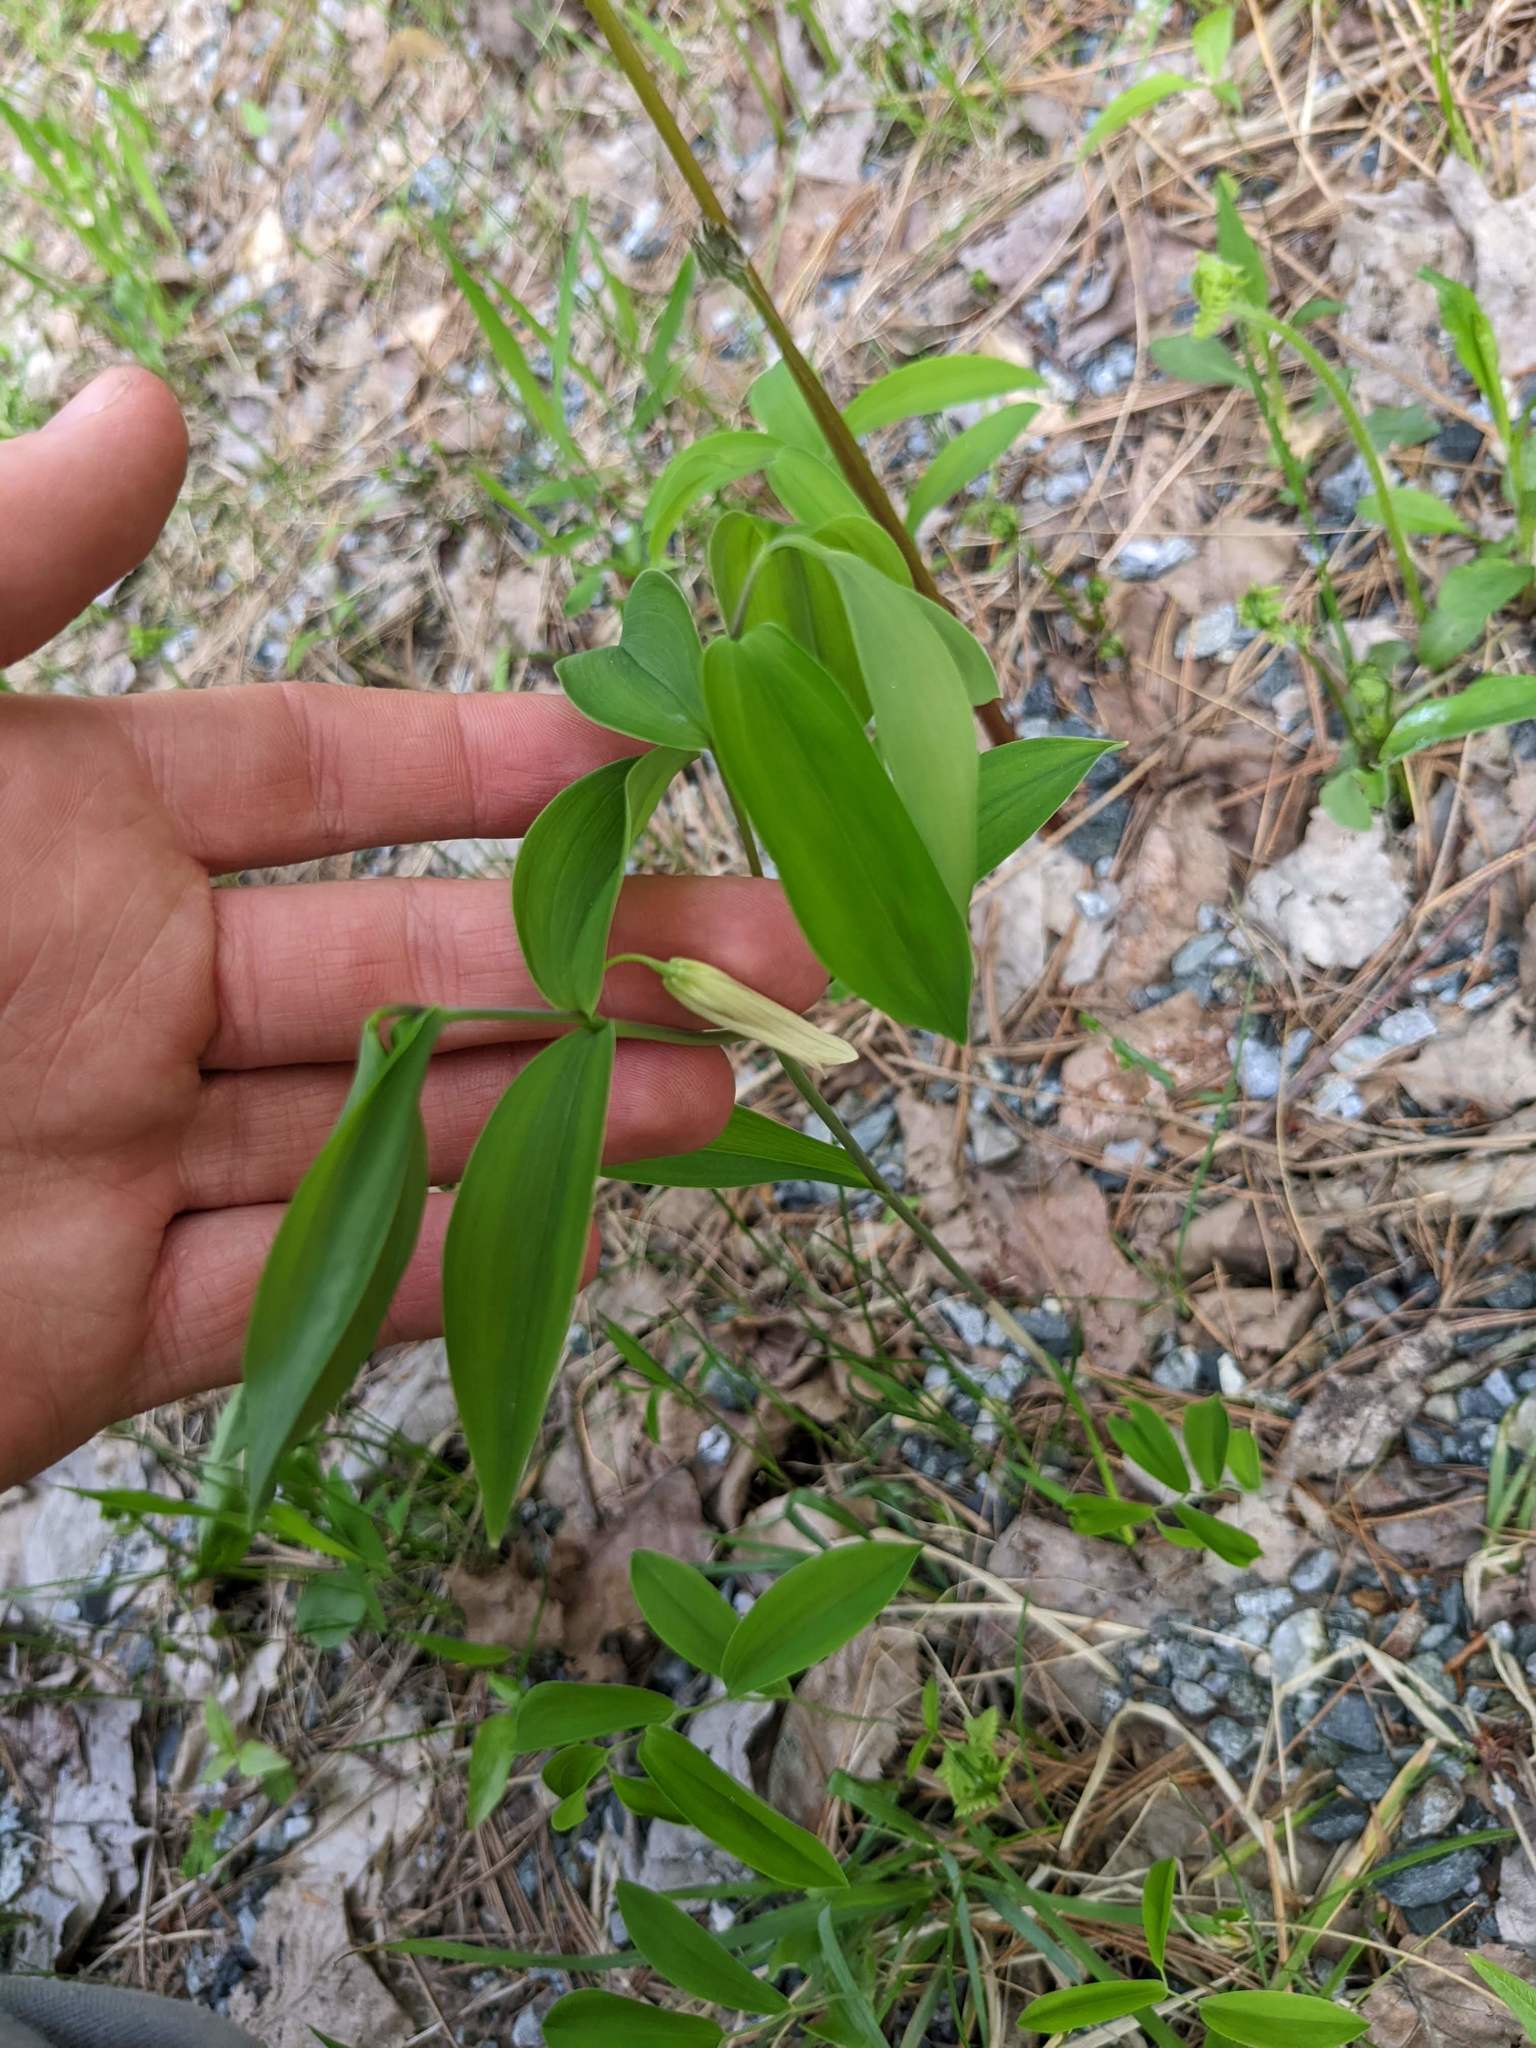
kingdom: Plantae
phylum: Tracheophyta
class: Liliopsida
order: Liliales
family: Colchicaceae
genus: Uvularia
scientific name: Uvularia sessilifolia
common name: Straw-lily
